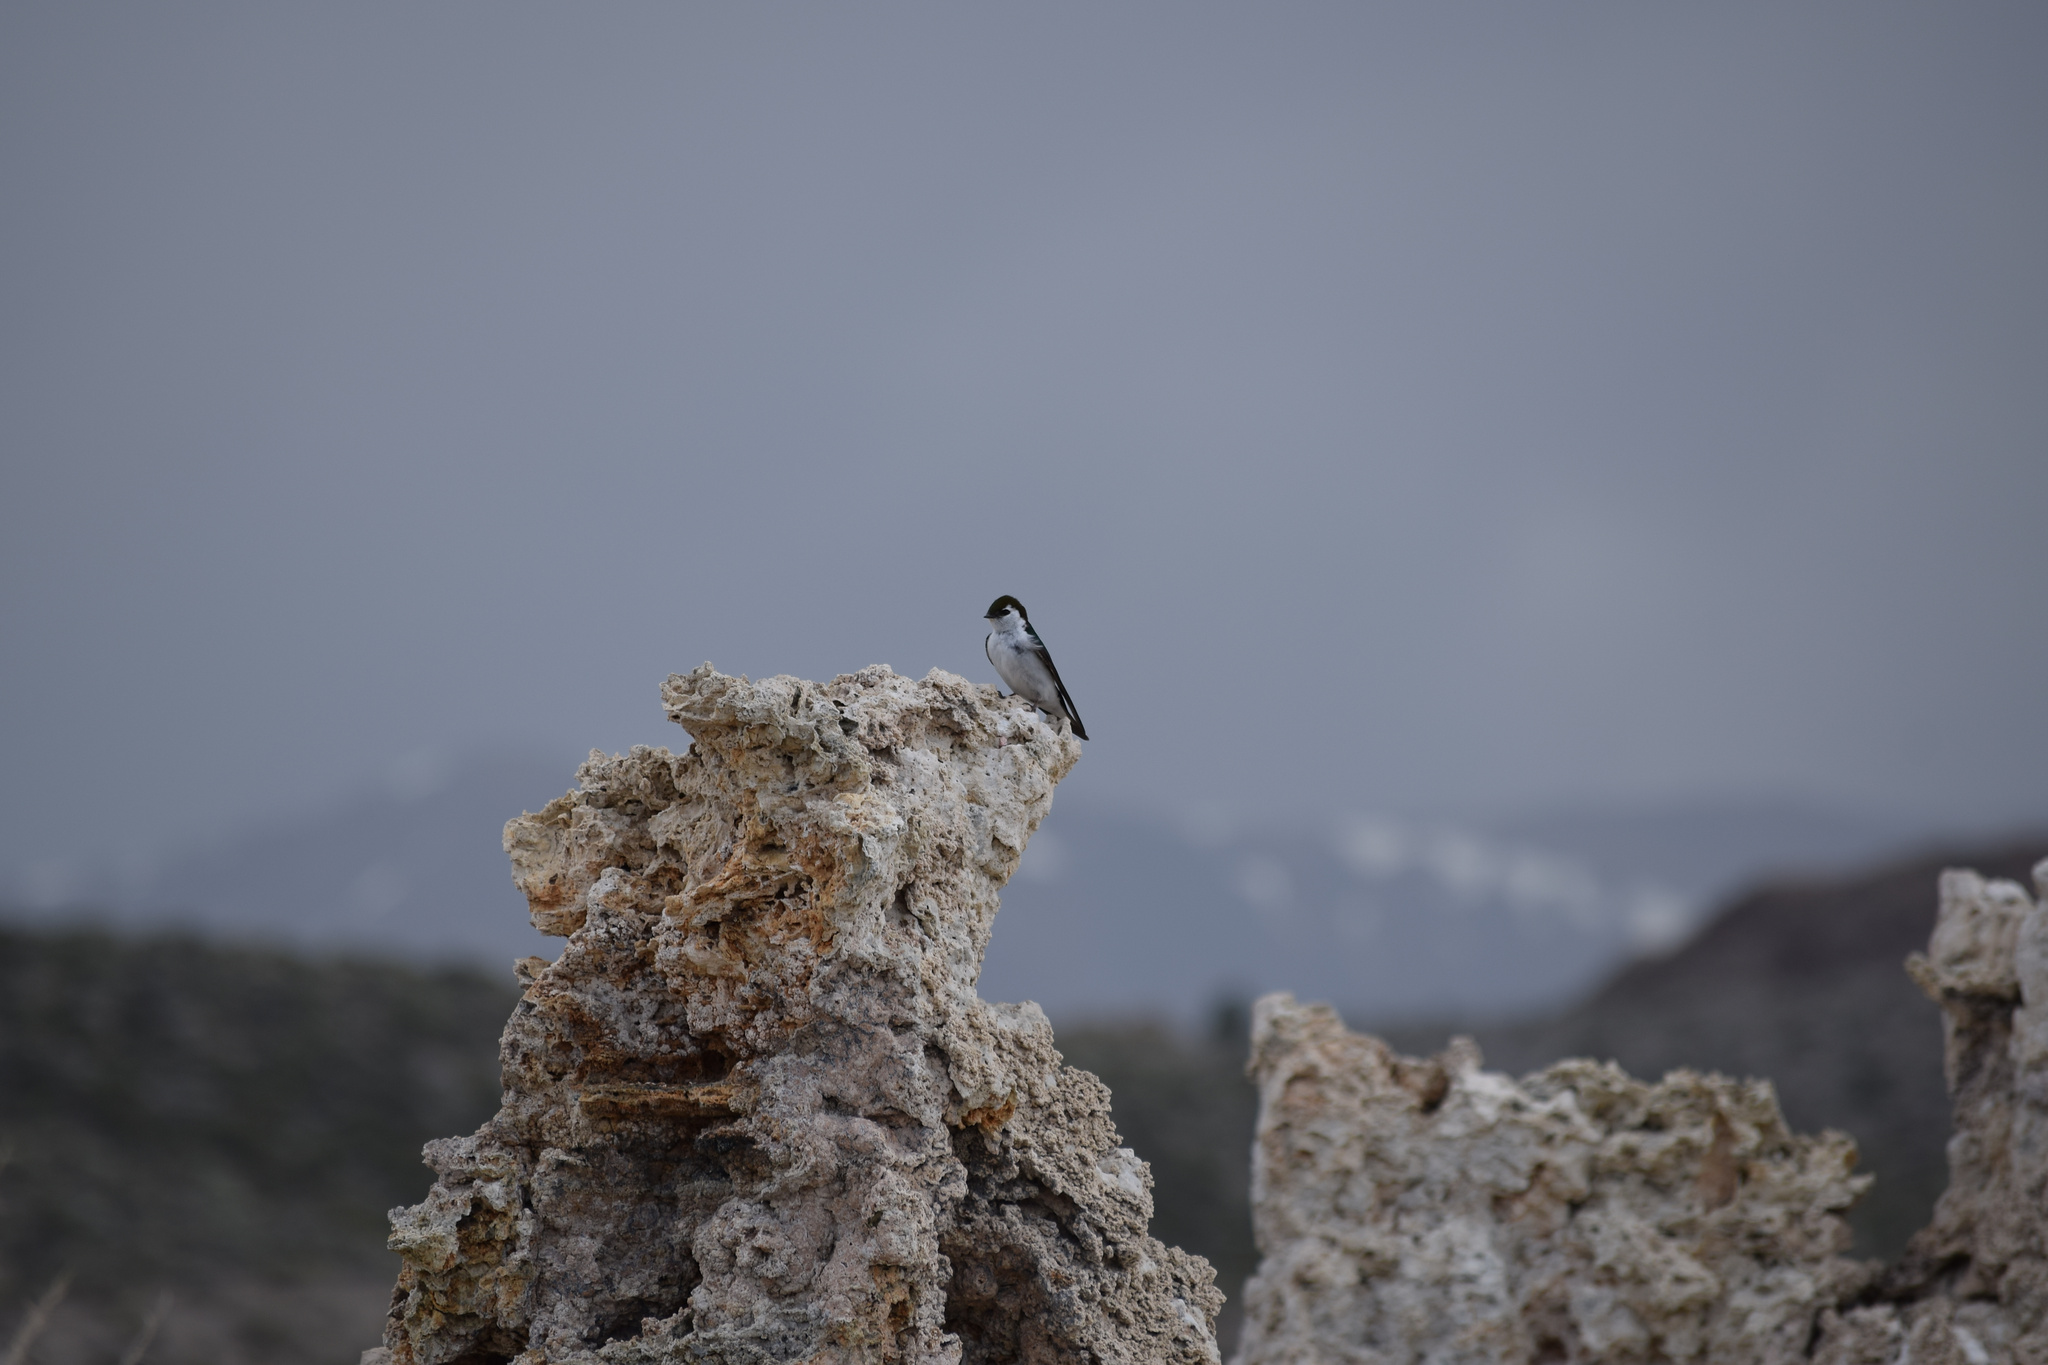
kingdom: Animalia
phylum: Chordata
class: Aves
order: Passeriformes
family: Hirundinidae
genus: Tachycineta
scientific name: Tachycineta thalassina
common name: Violet-green swallow
